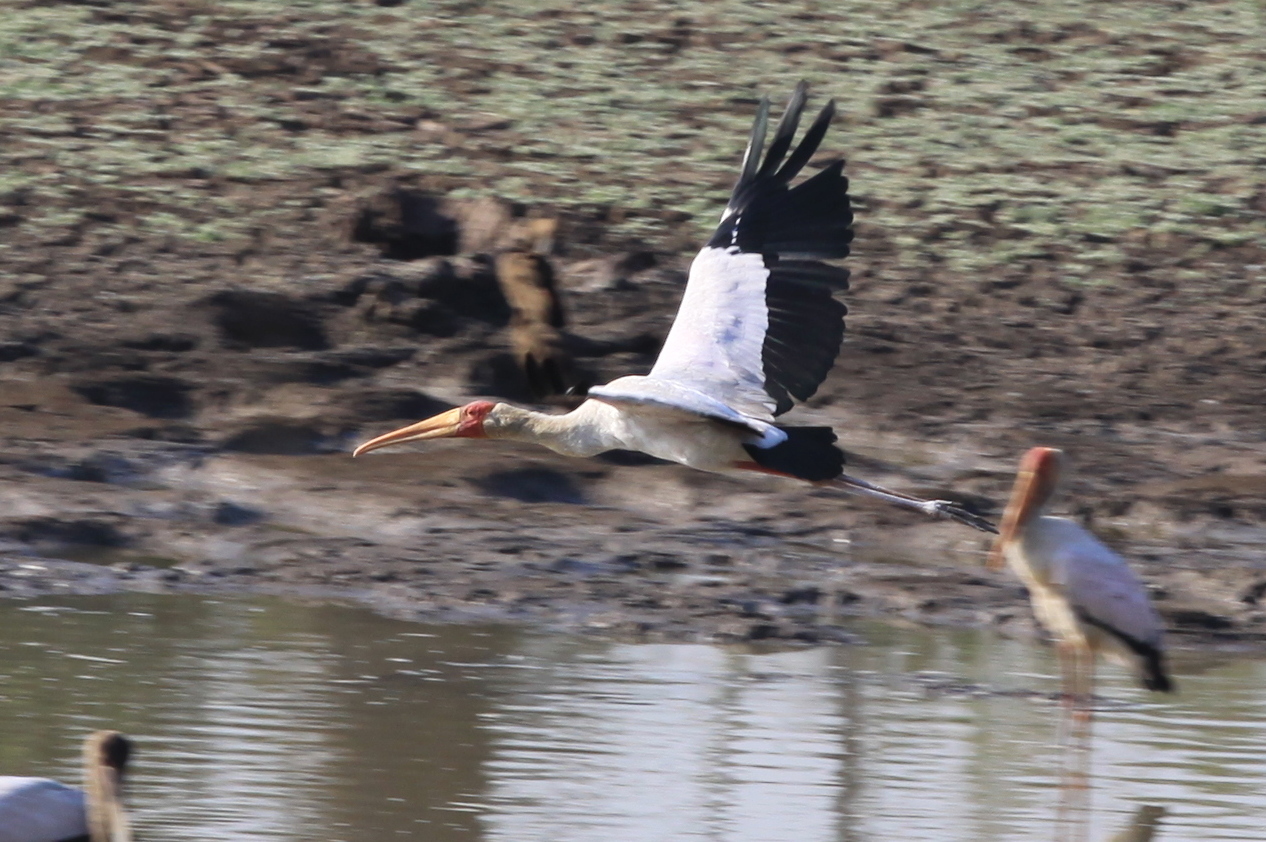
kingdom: Animalia
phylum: Chordata
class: Aves
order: Ciconiiformes
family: Ciconiidae
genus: Mycteria
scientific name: Mycteria ibis
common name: Yellow-billed stork
